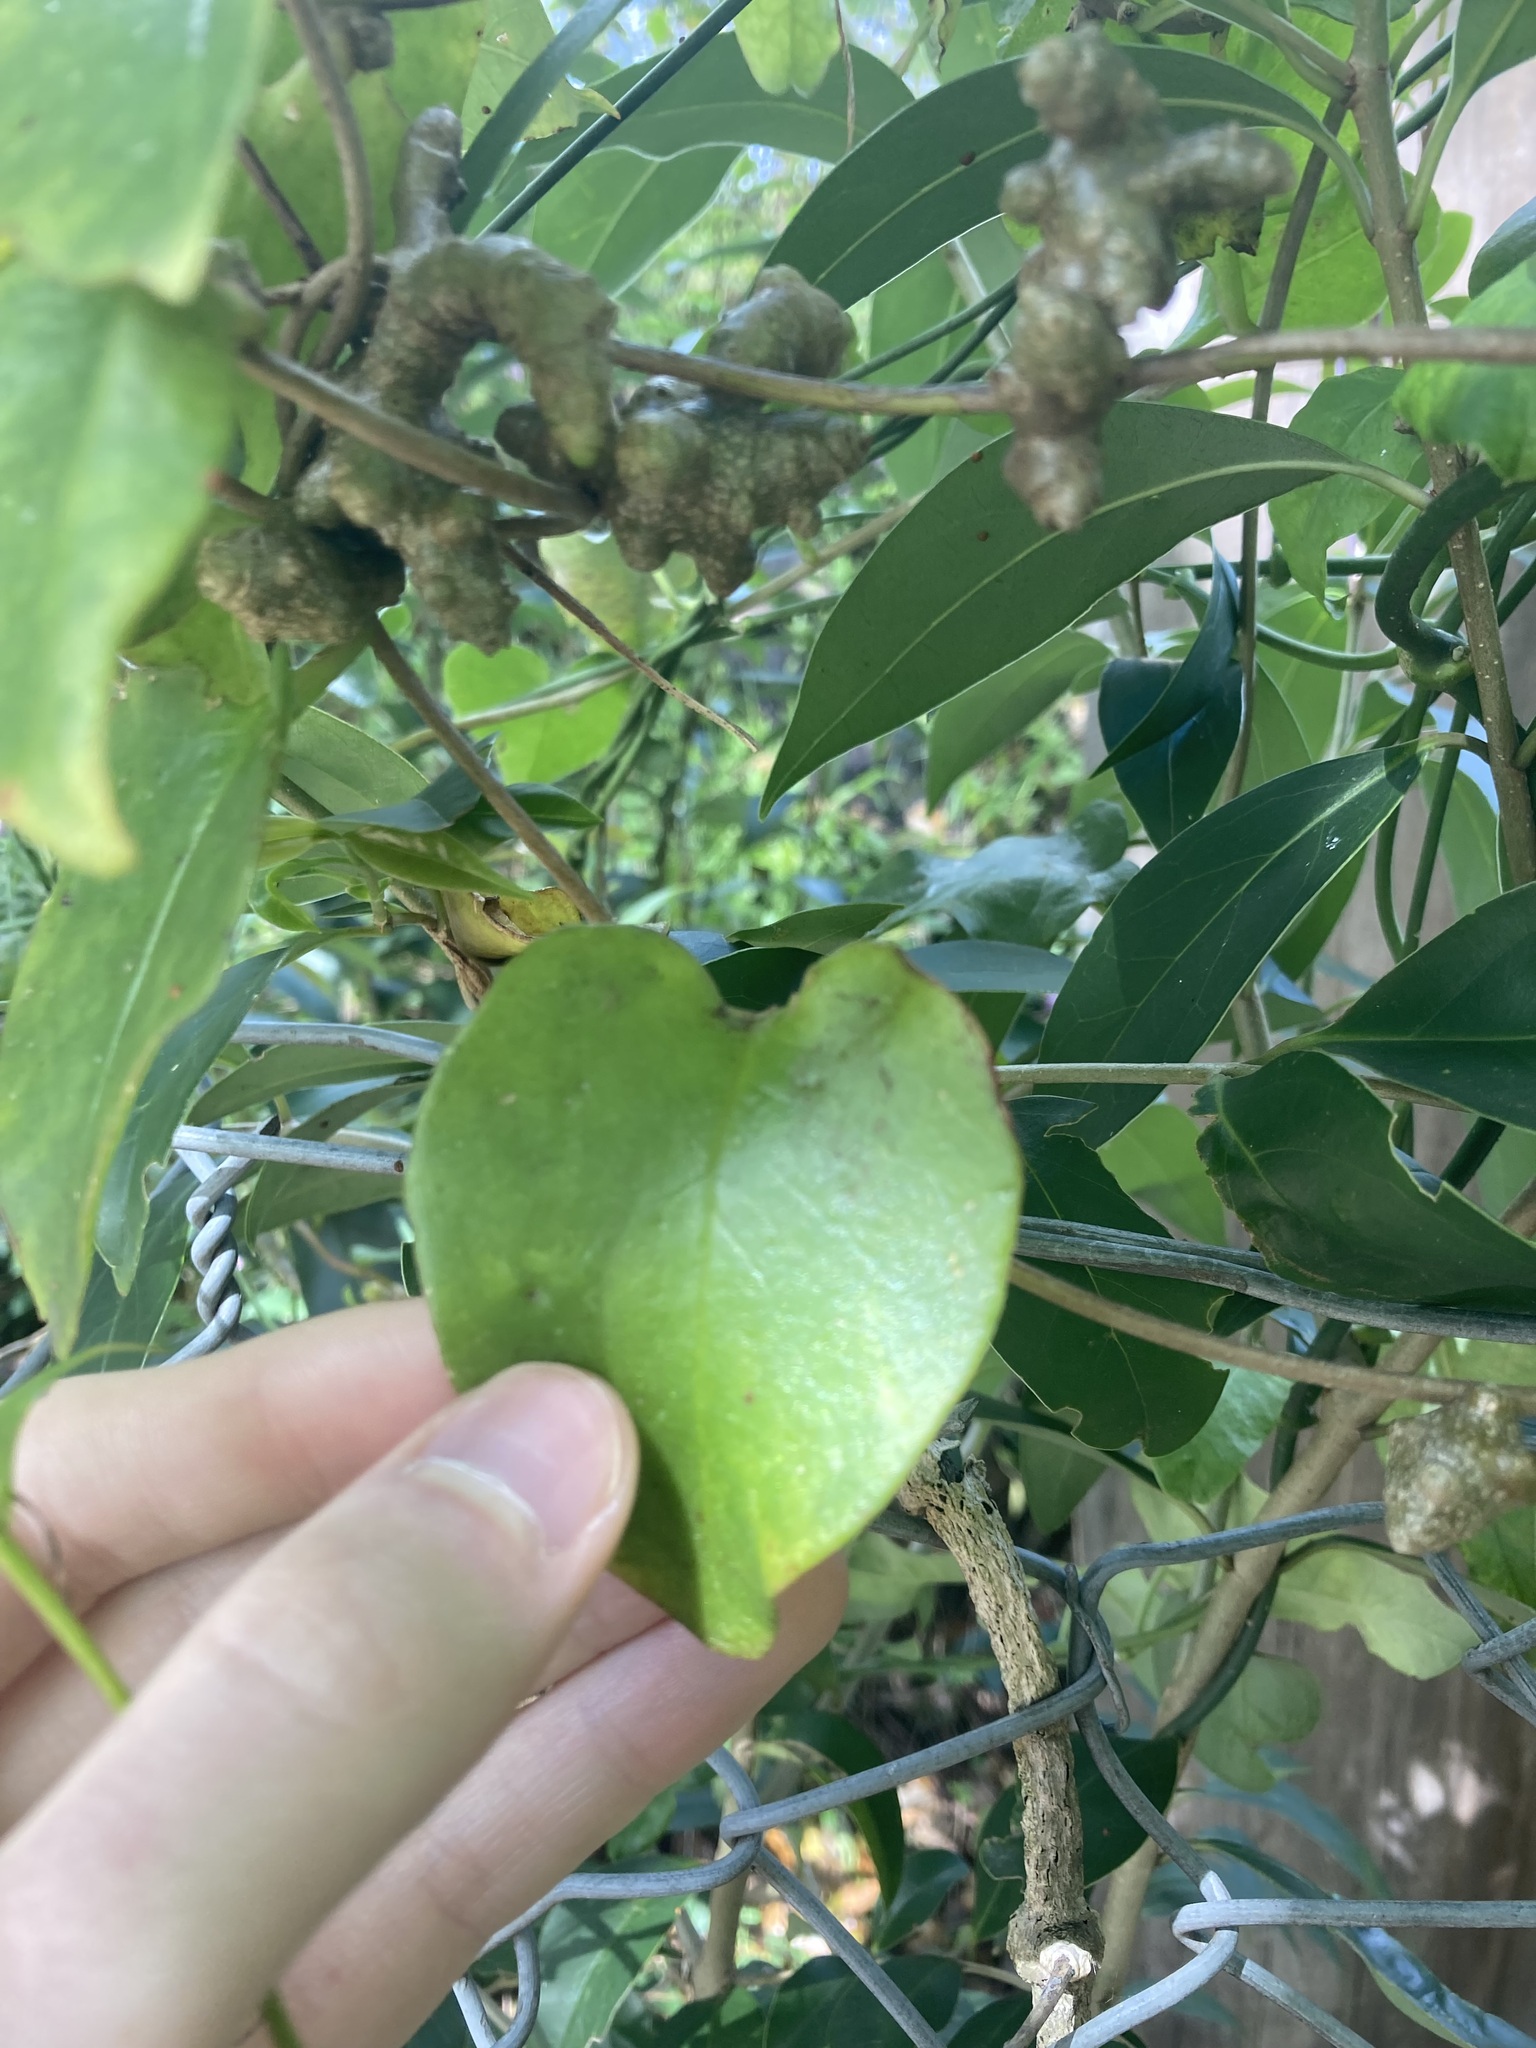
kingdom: Plantae
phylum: Tracheophyta
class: Magnoliopsida
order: Caryophyllales
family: Basellaceae
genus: Anredera
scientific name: Anredera cordifolia
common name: Heartleaf madeiravine
